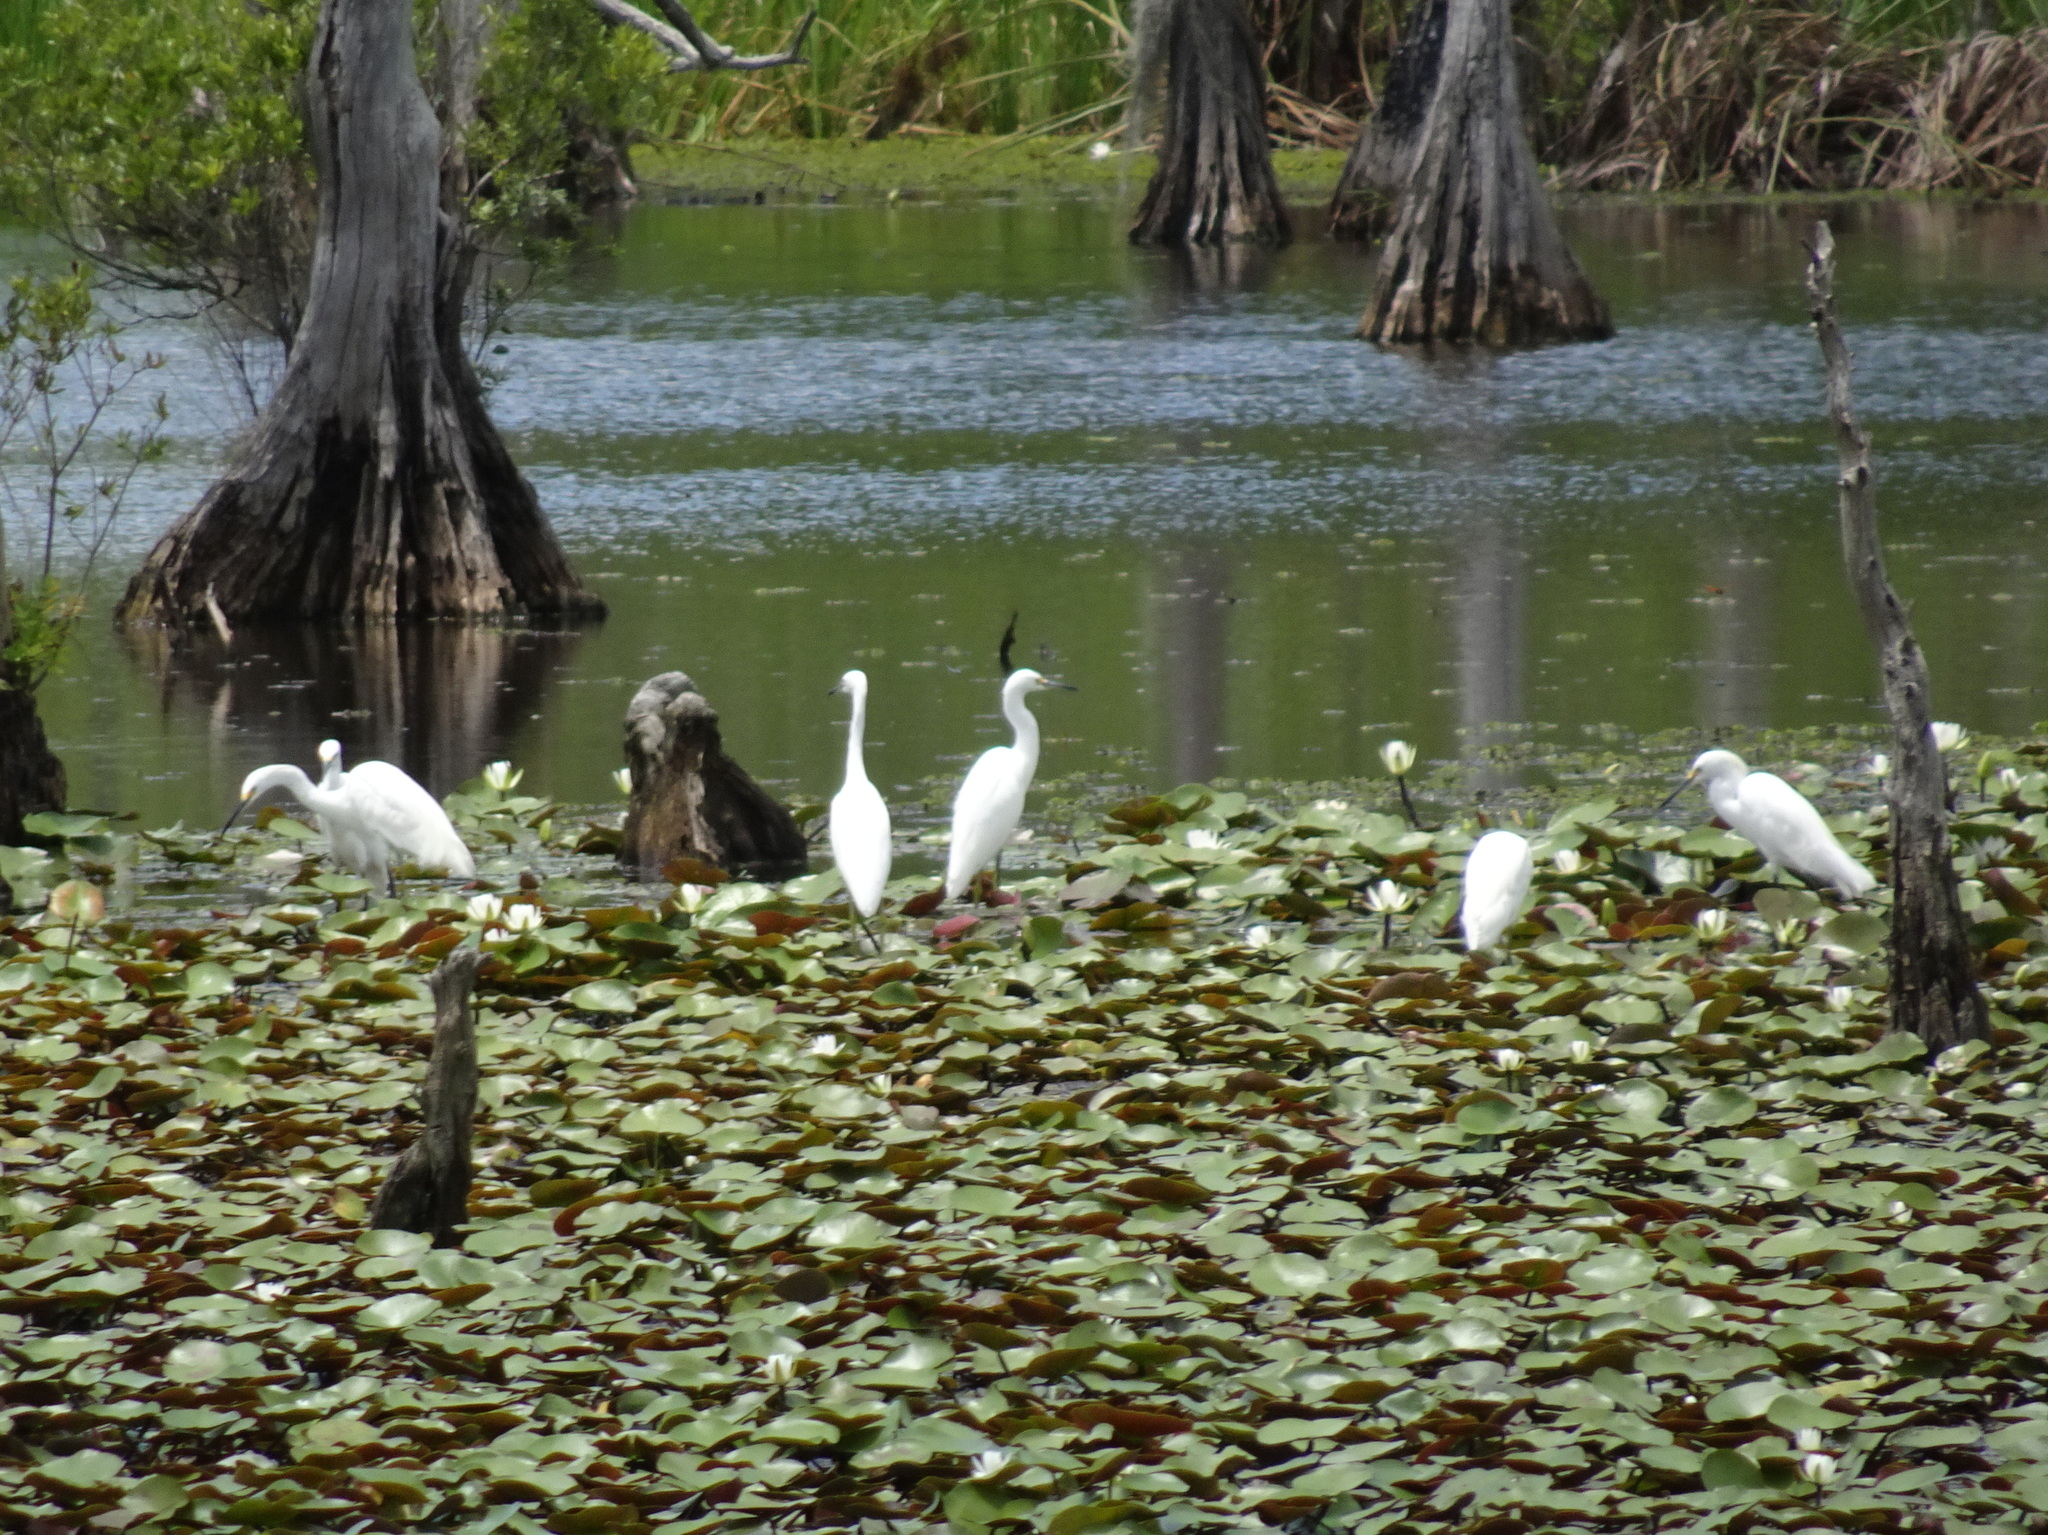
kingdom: Animalia
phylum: Chordata
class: Aves
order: Pelecaniformes
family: Ardeidae
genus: Egretta
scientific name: Egretta thula
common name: Snowy egret
